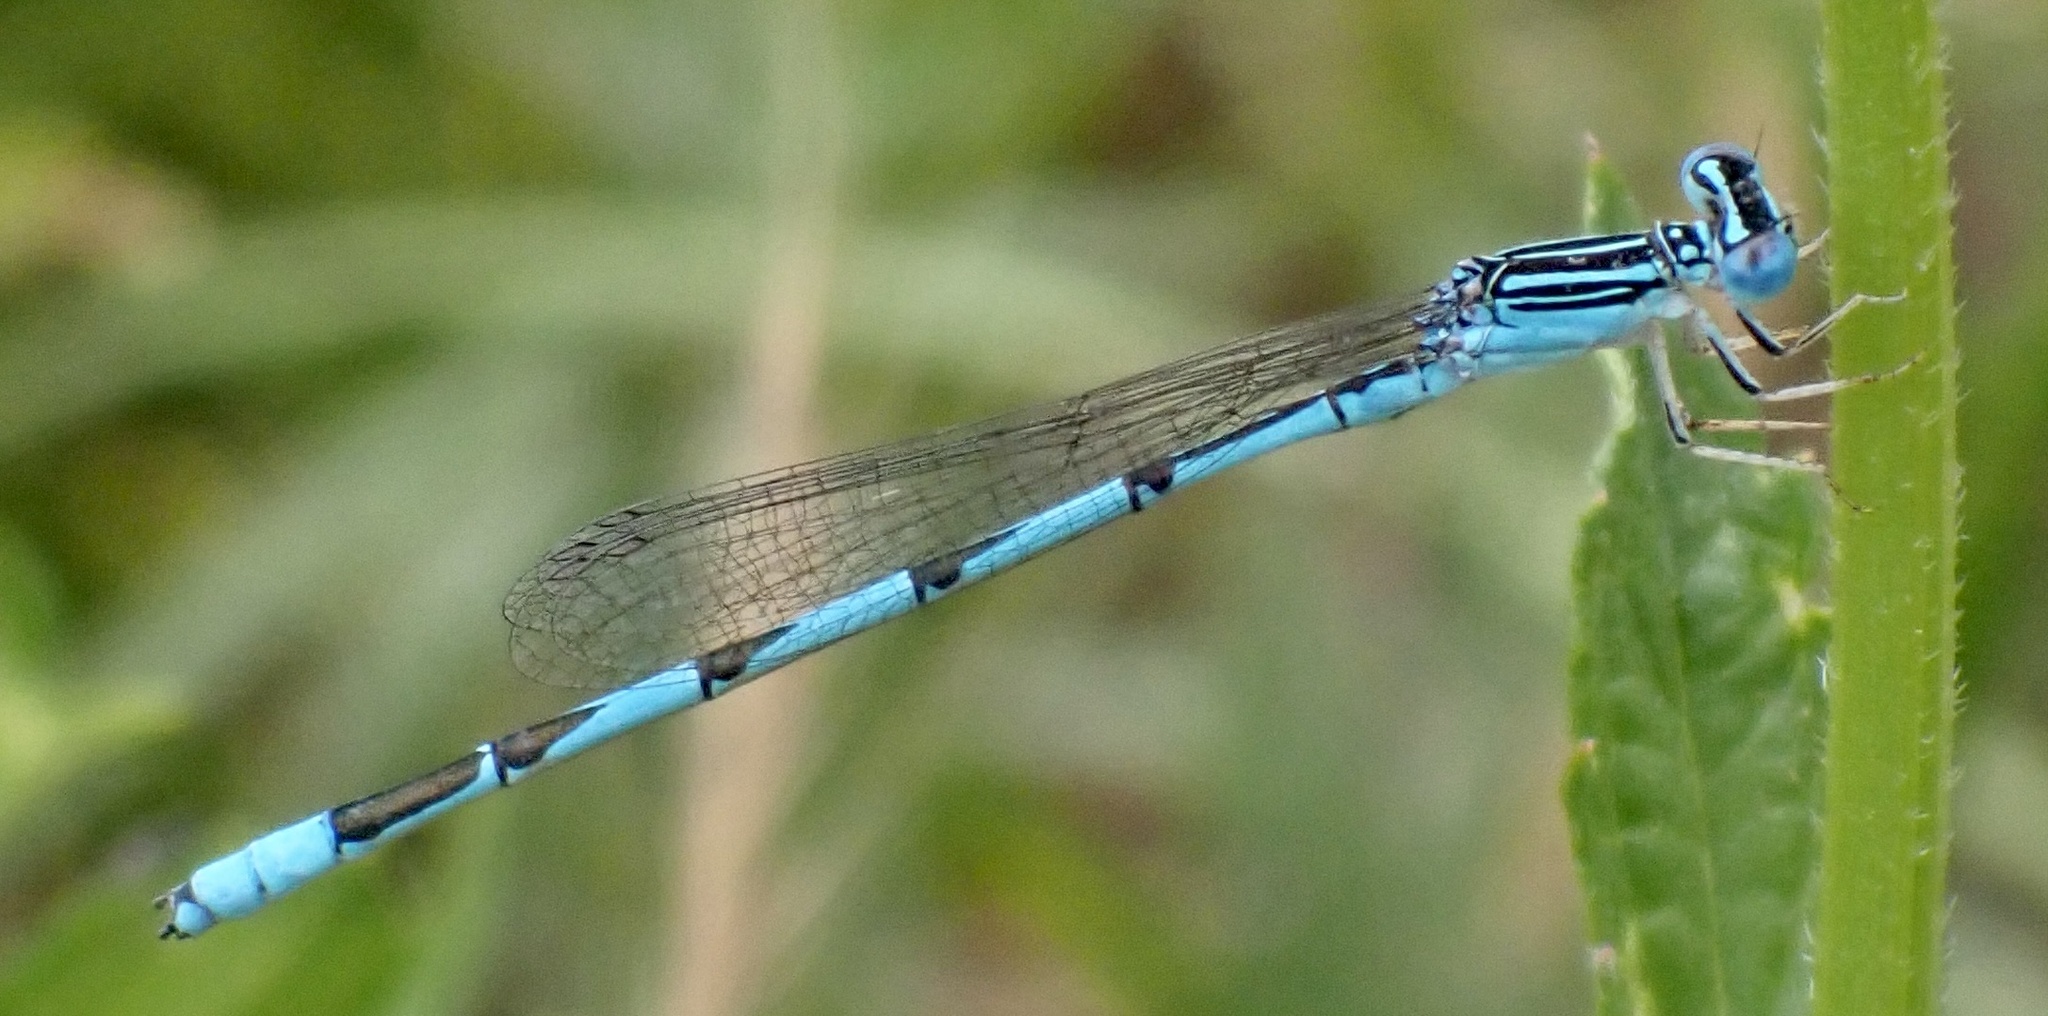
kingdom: Animalia
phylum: Arthropoda
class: Insecta
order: Odonata
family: Coenagrionidae
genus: Enallagma
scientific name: Enallagma basidens
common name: Double-striped bluet
